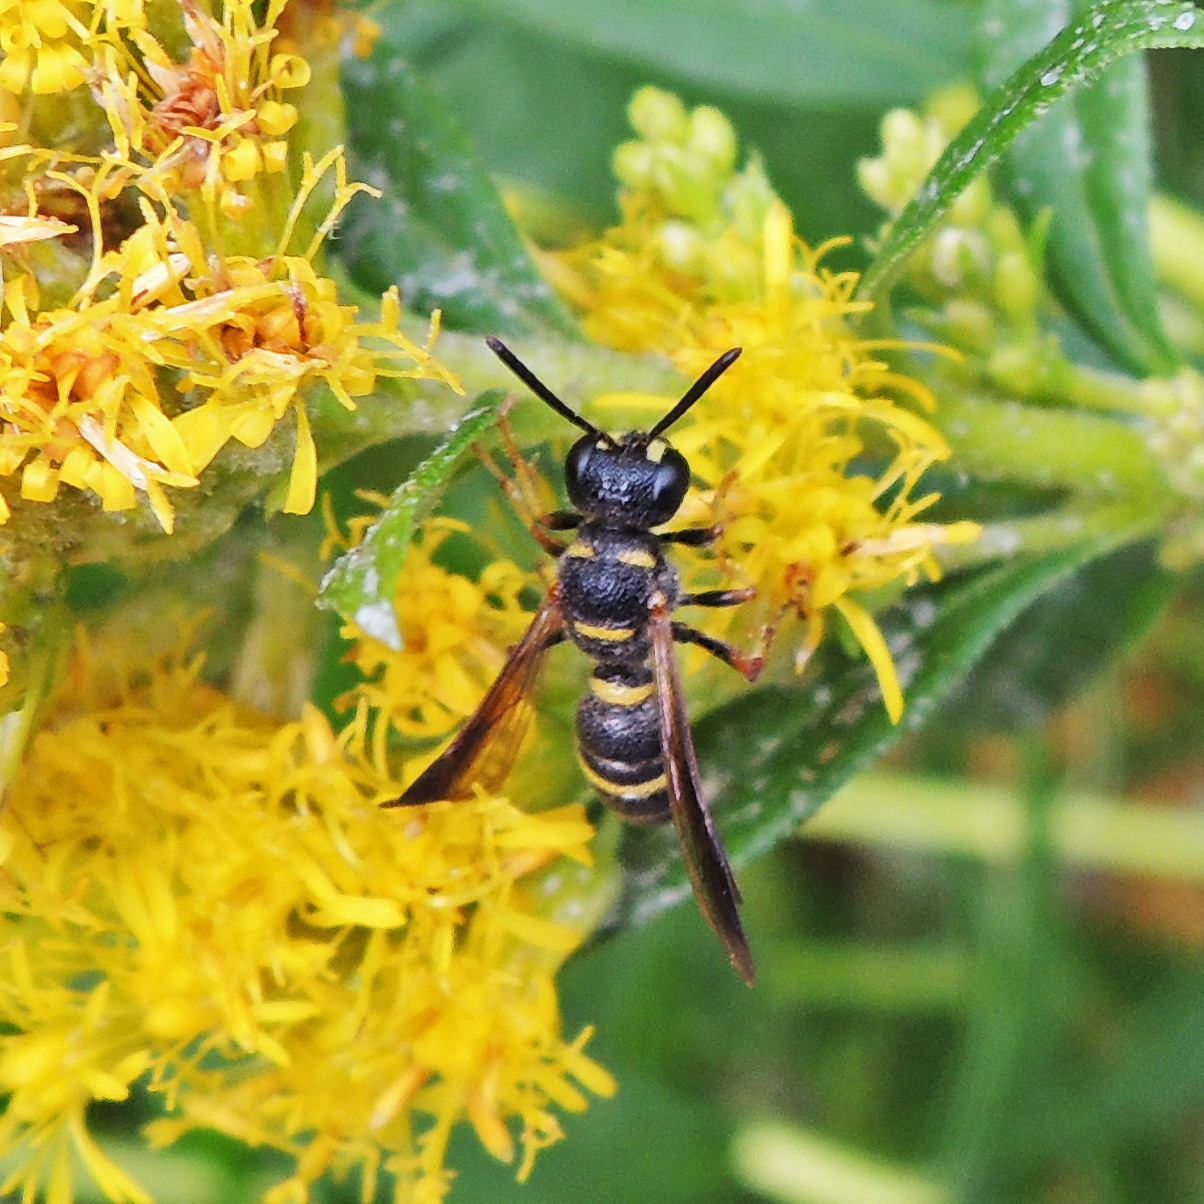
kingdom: Animalia
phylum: Arthropoda
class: Insecta
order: Hymenoptera
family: Crabronidae
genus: Cerceris
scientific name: Cerceris insolita
